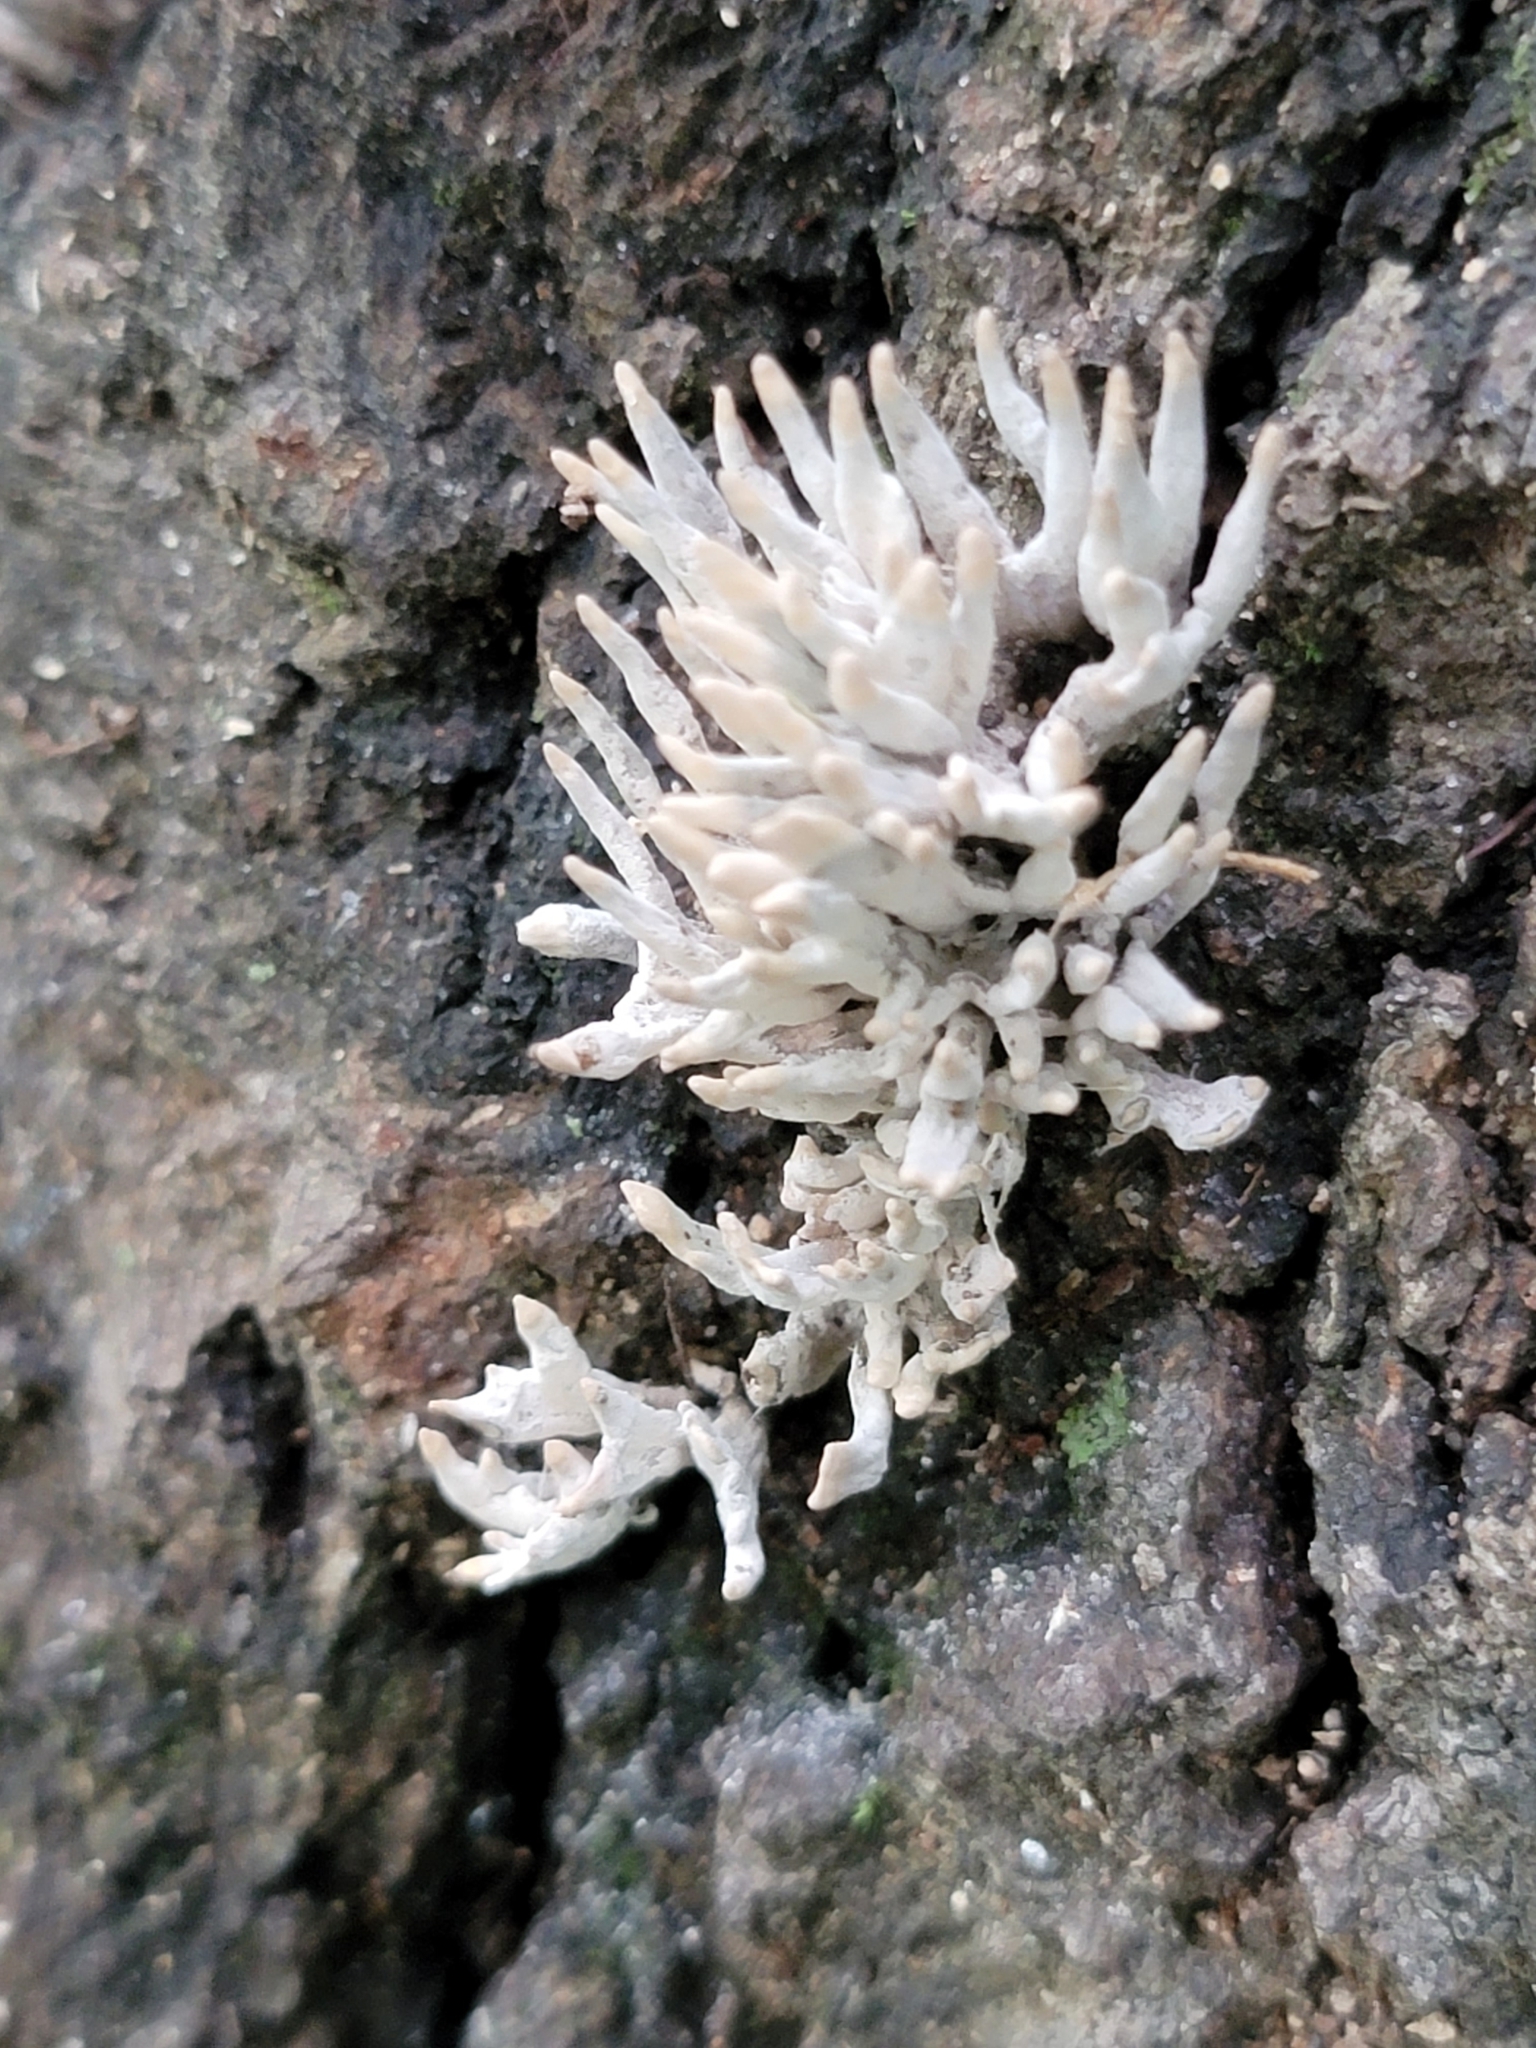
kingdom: Fungi
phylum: Basidiomycota
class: Agaricomycetes
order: Sebacinales
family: Sebacinaceae
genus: Sebacina
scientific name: Sebacina schweinitzii
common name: Jellied false coral fungus
